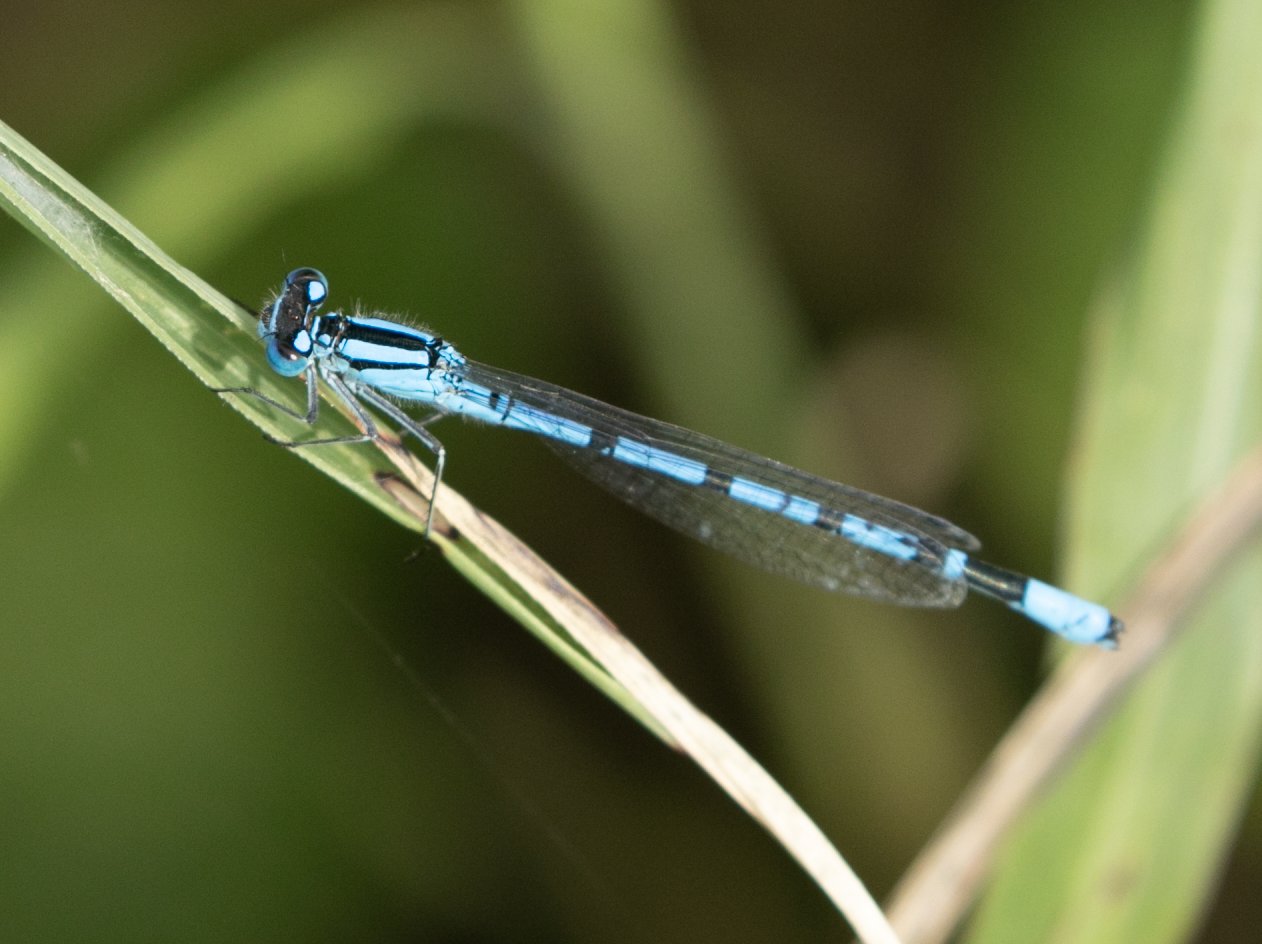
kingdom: Animalia
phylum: Arthropoda
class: Insecta
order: Odonata
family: Coenagrionidae
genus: Enallagma
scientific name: Enallagma cyathigerum
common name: Common blue damselfly
